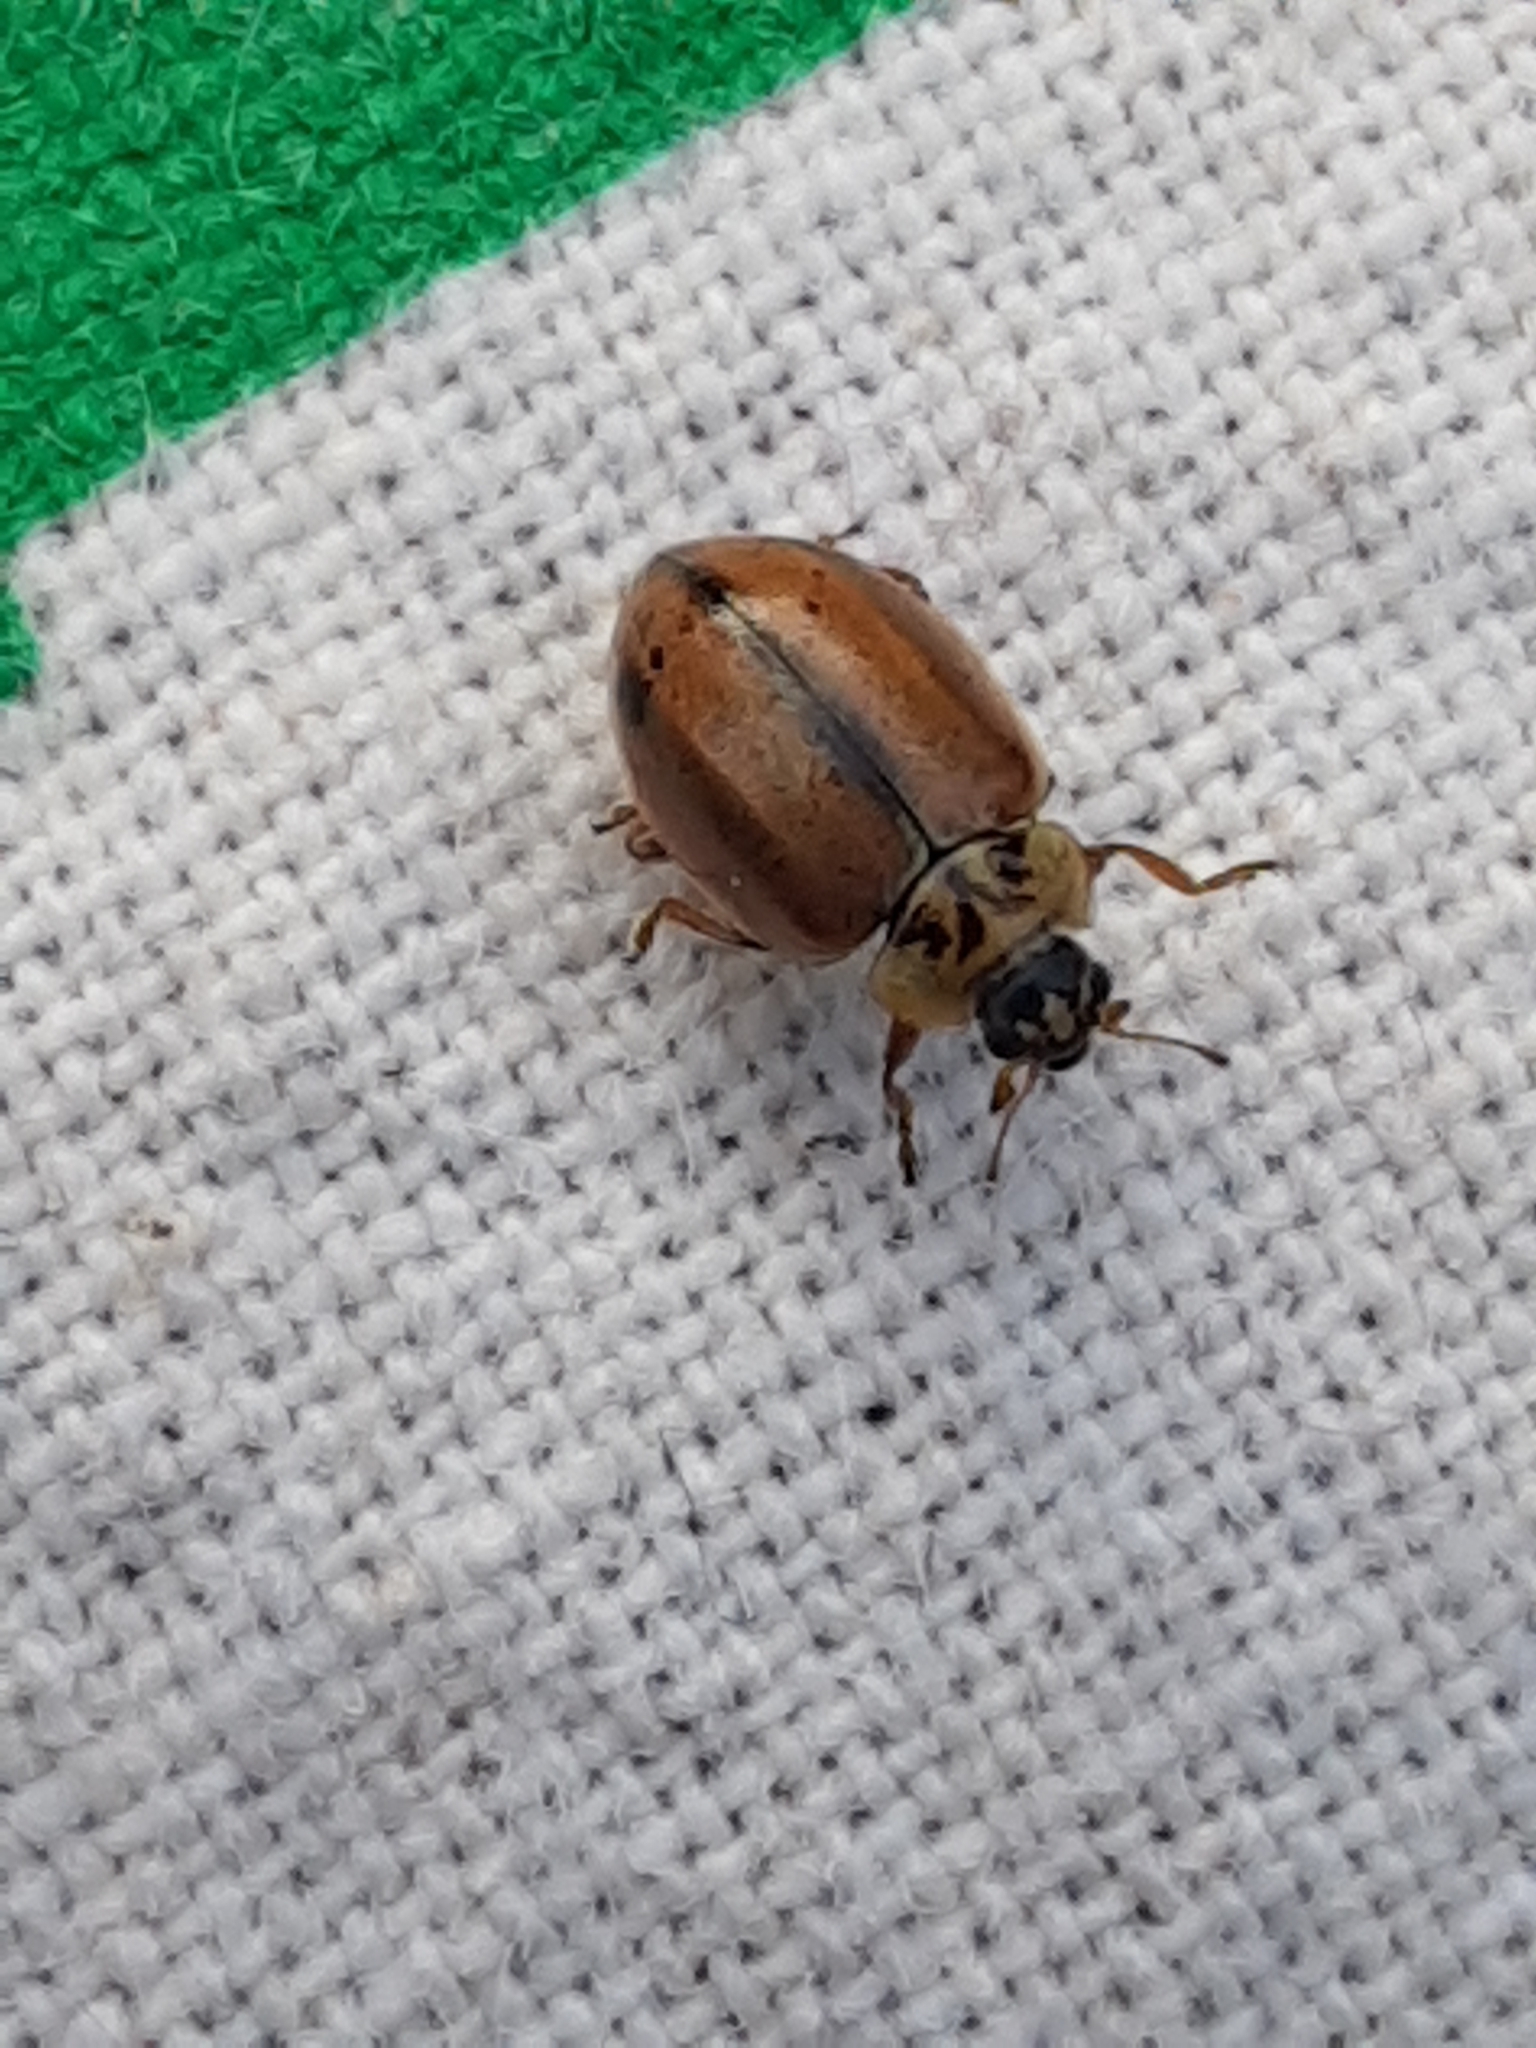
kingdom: Animalia
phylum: Arthropoda
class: Insecta
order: Coleoptera
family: Coccinellidae
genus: Aphidecta
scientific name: Aphidecta obliterata
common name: Larch ladybird
